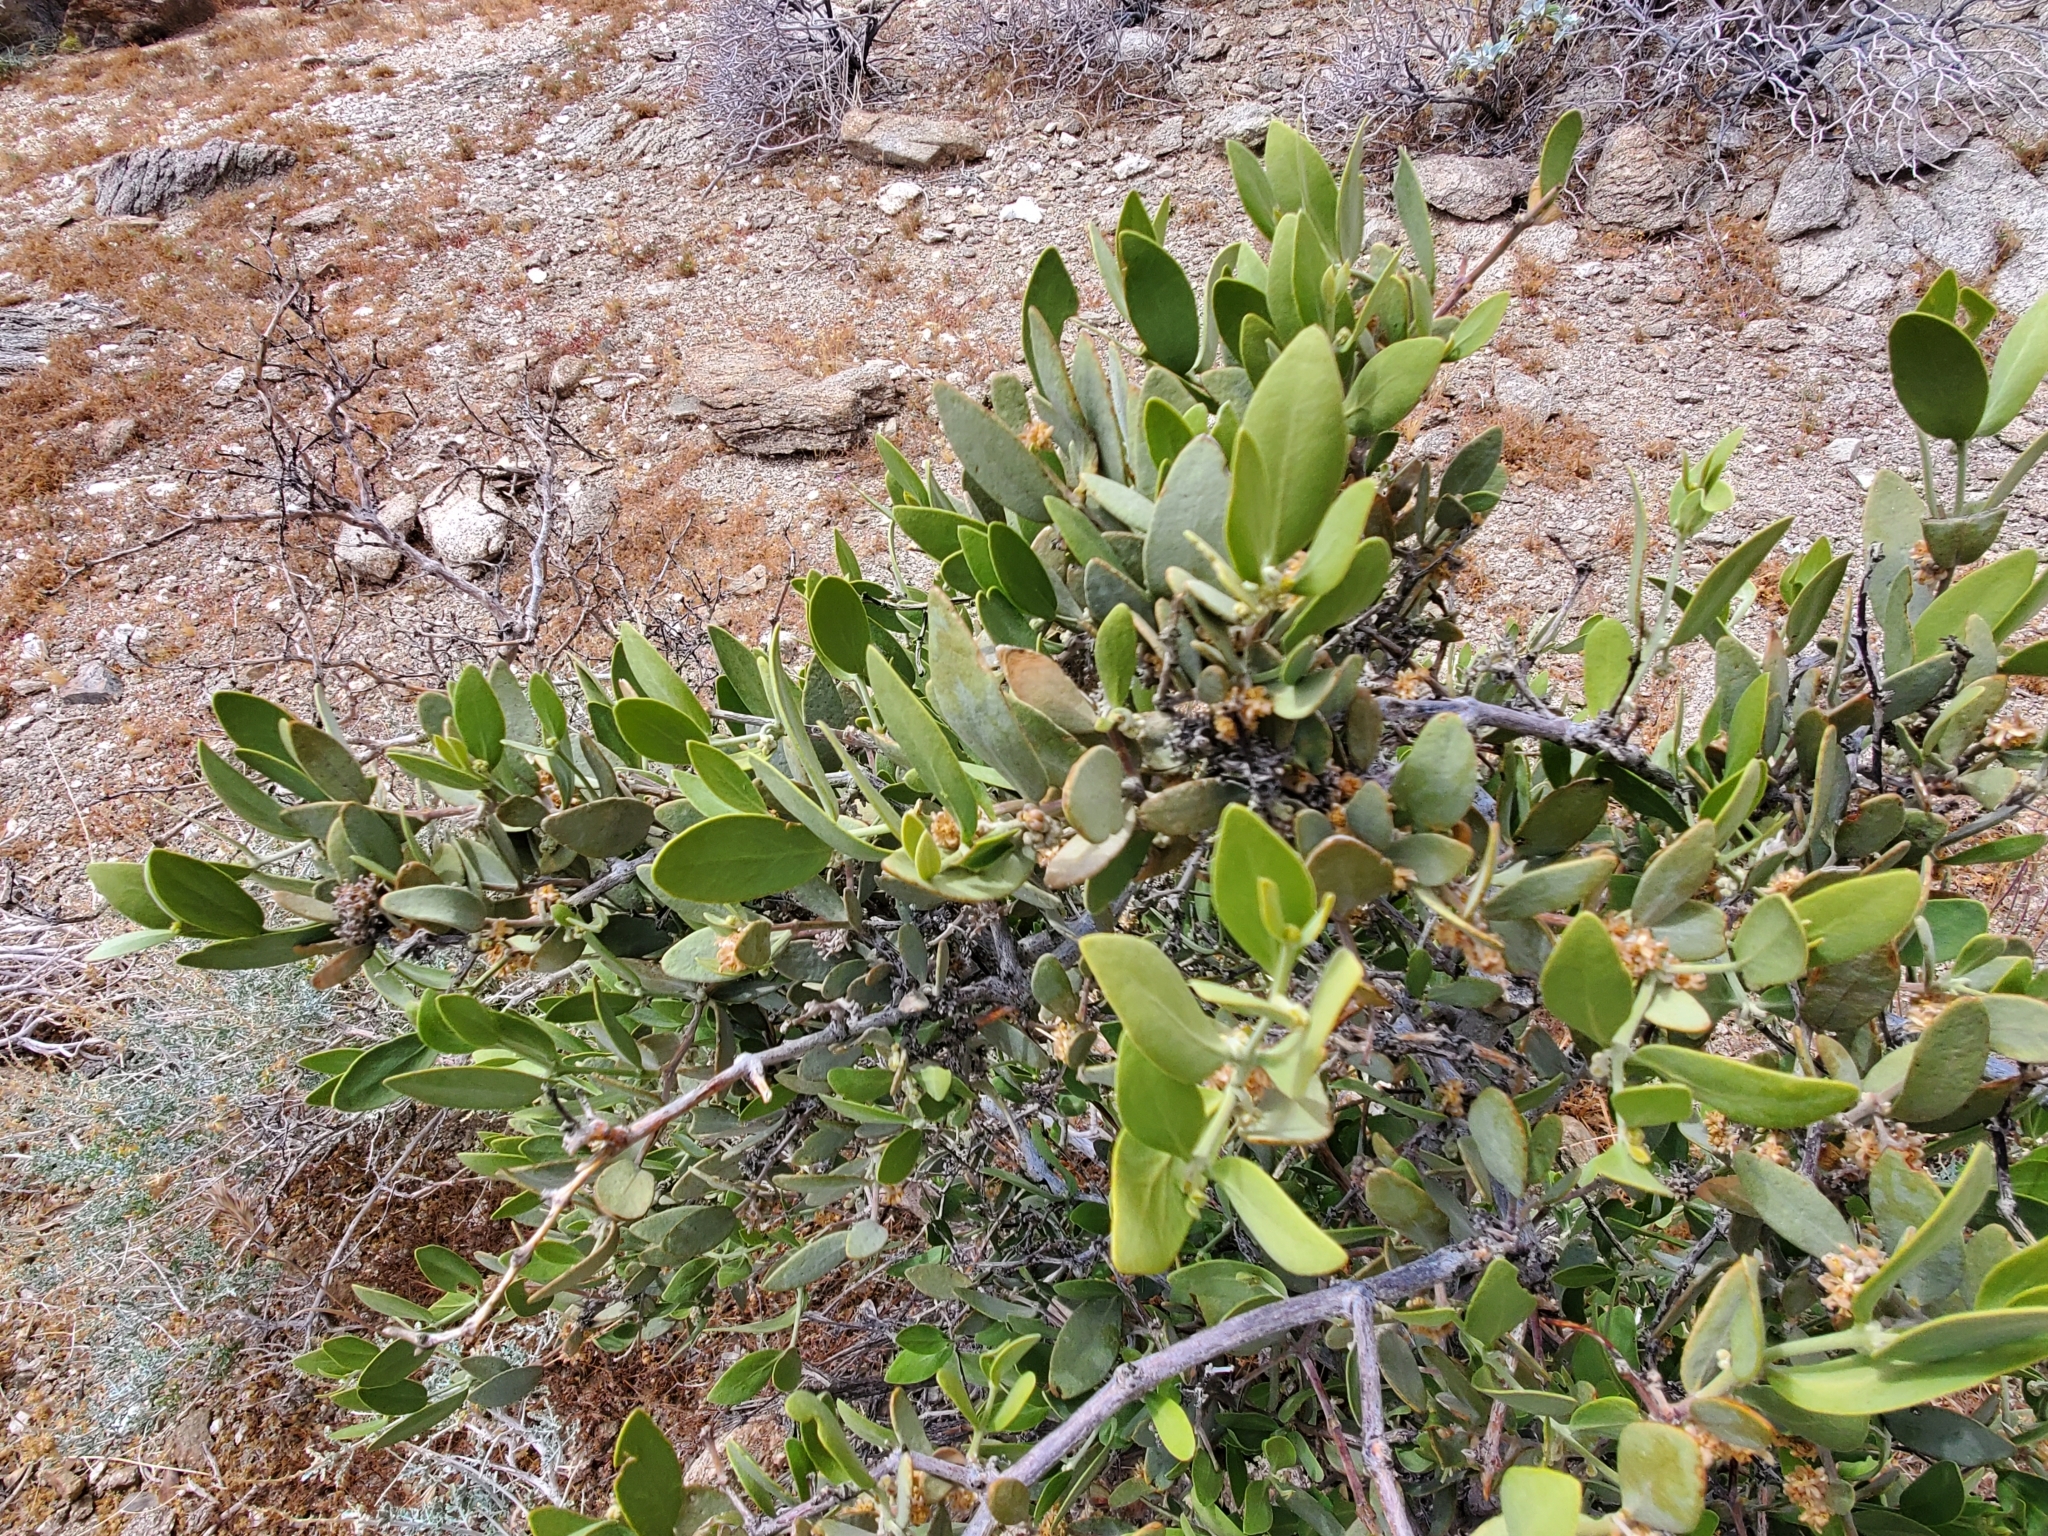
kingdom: Plantae
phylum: Tracheophyta
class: Magnoliopsida
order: Caryophyllales
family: Simmondsiaceae
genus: Simmondsia
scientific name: Simmondsia chinensis
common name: Jojoba
